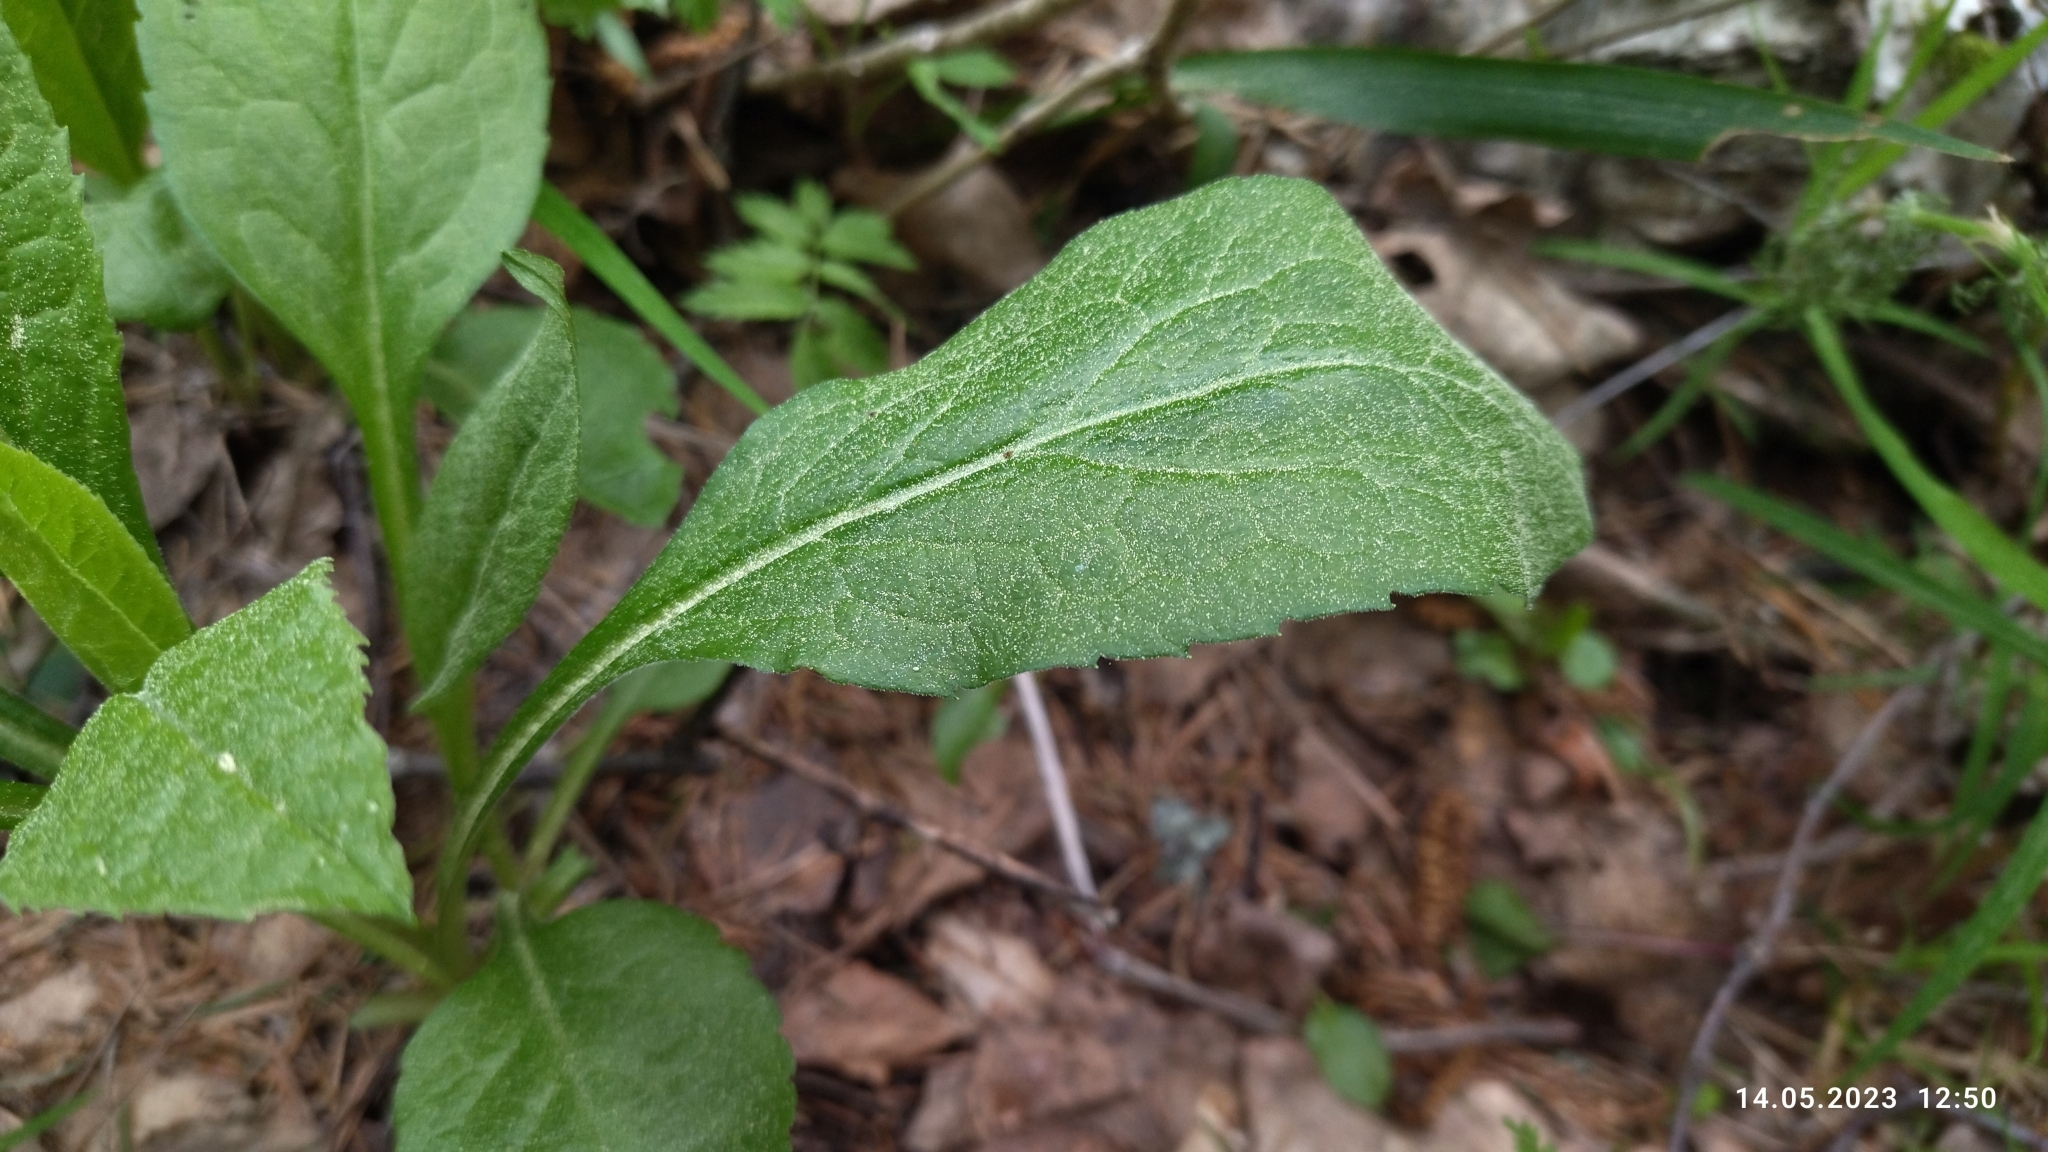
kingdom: Plantae
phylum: Tracheophyta
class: Magnoliopsida
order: Asterales
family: Asteraceae
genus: Solidago
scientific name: Solidago virgaurea
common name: Goldenrod
